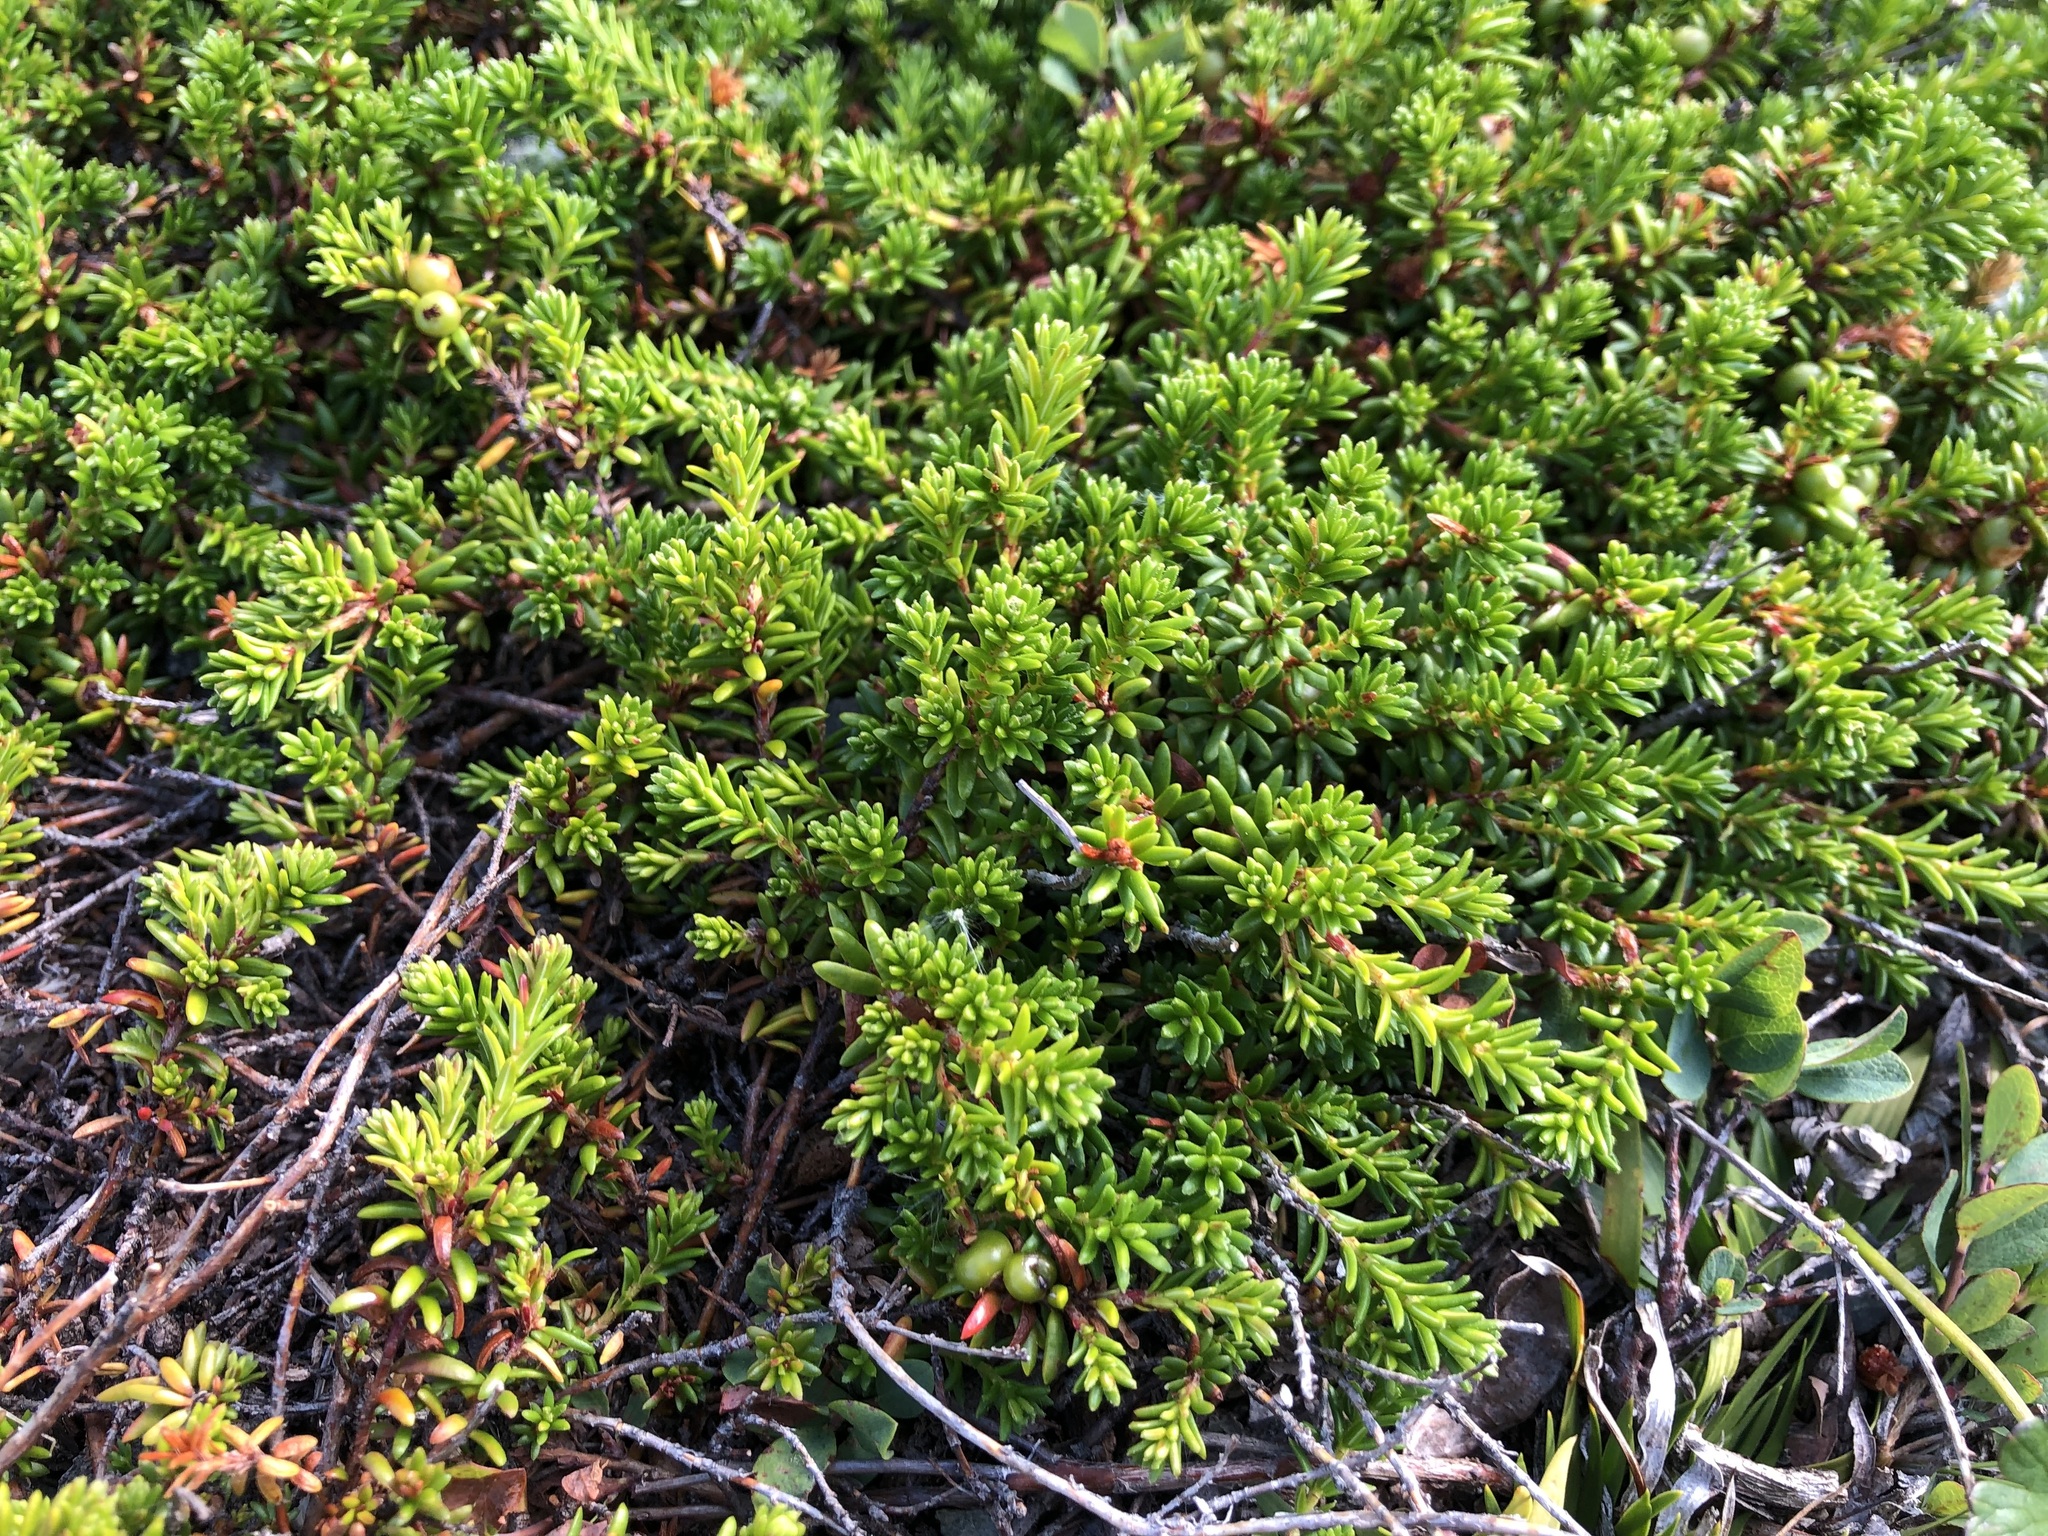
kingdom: Plantae
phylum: Tracheophyta
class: Magnoliopsida
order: Ericales
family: Ericaceae
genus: Empetrum
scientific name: Empetrum nigrum
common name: Black crowberry
